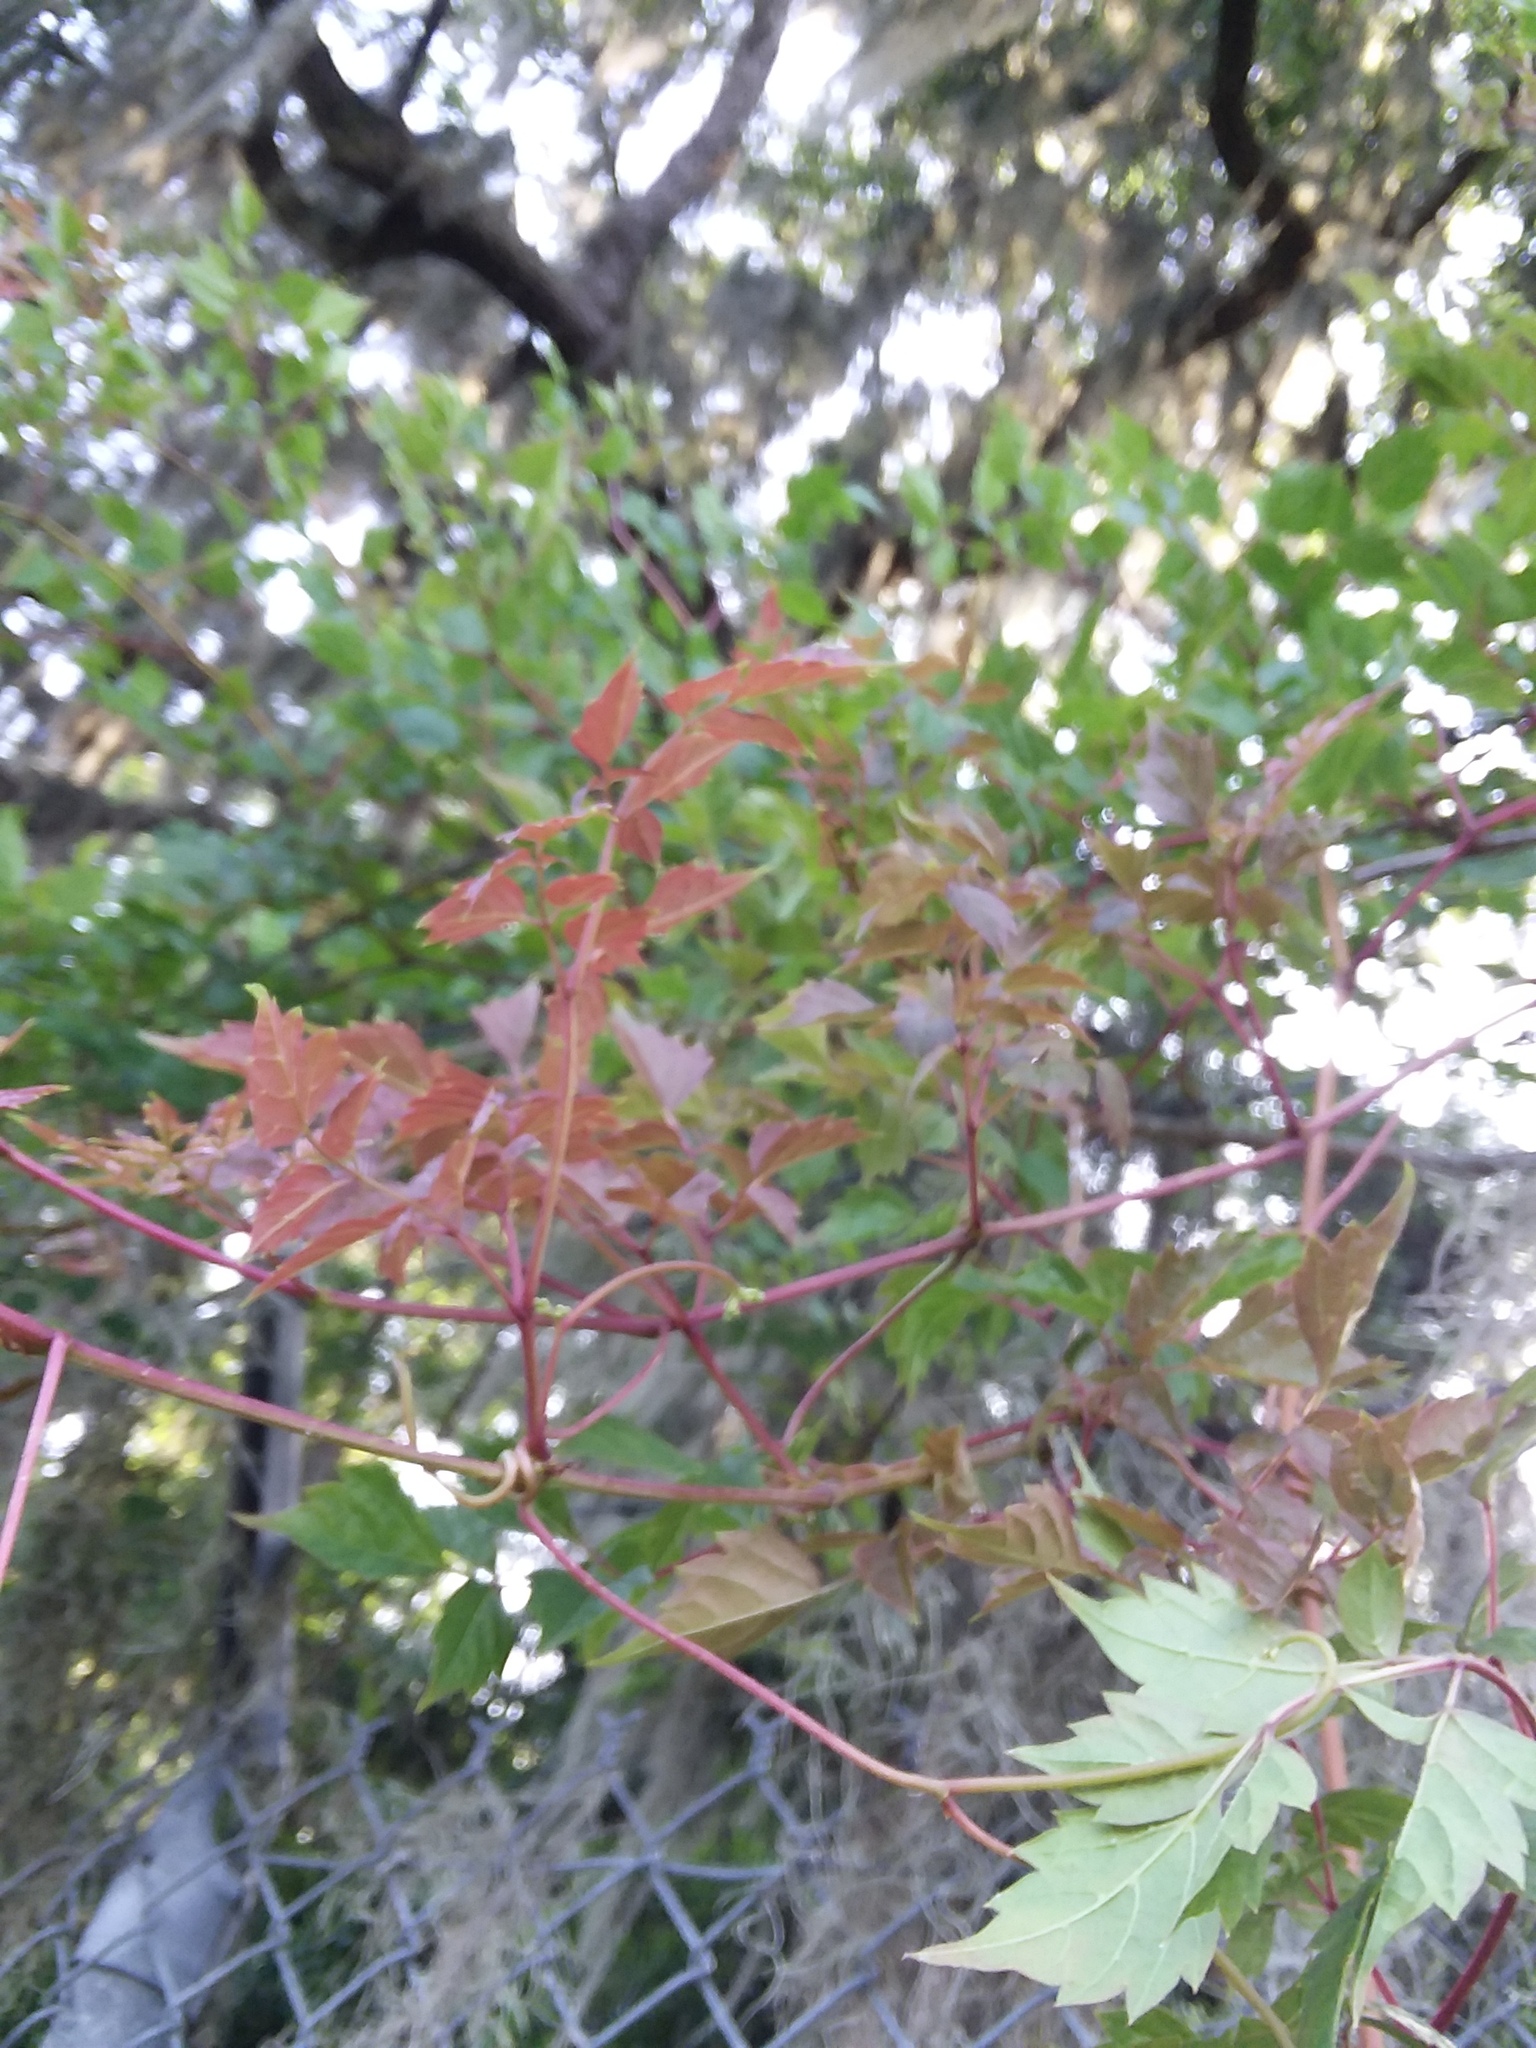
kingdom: Plantae
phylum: Tracheophyta
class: Magnoliopsida
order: Vitales
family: Vitaceae
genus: Nekemias
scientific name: Nekemias arborea
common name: Peppervine
